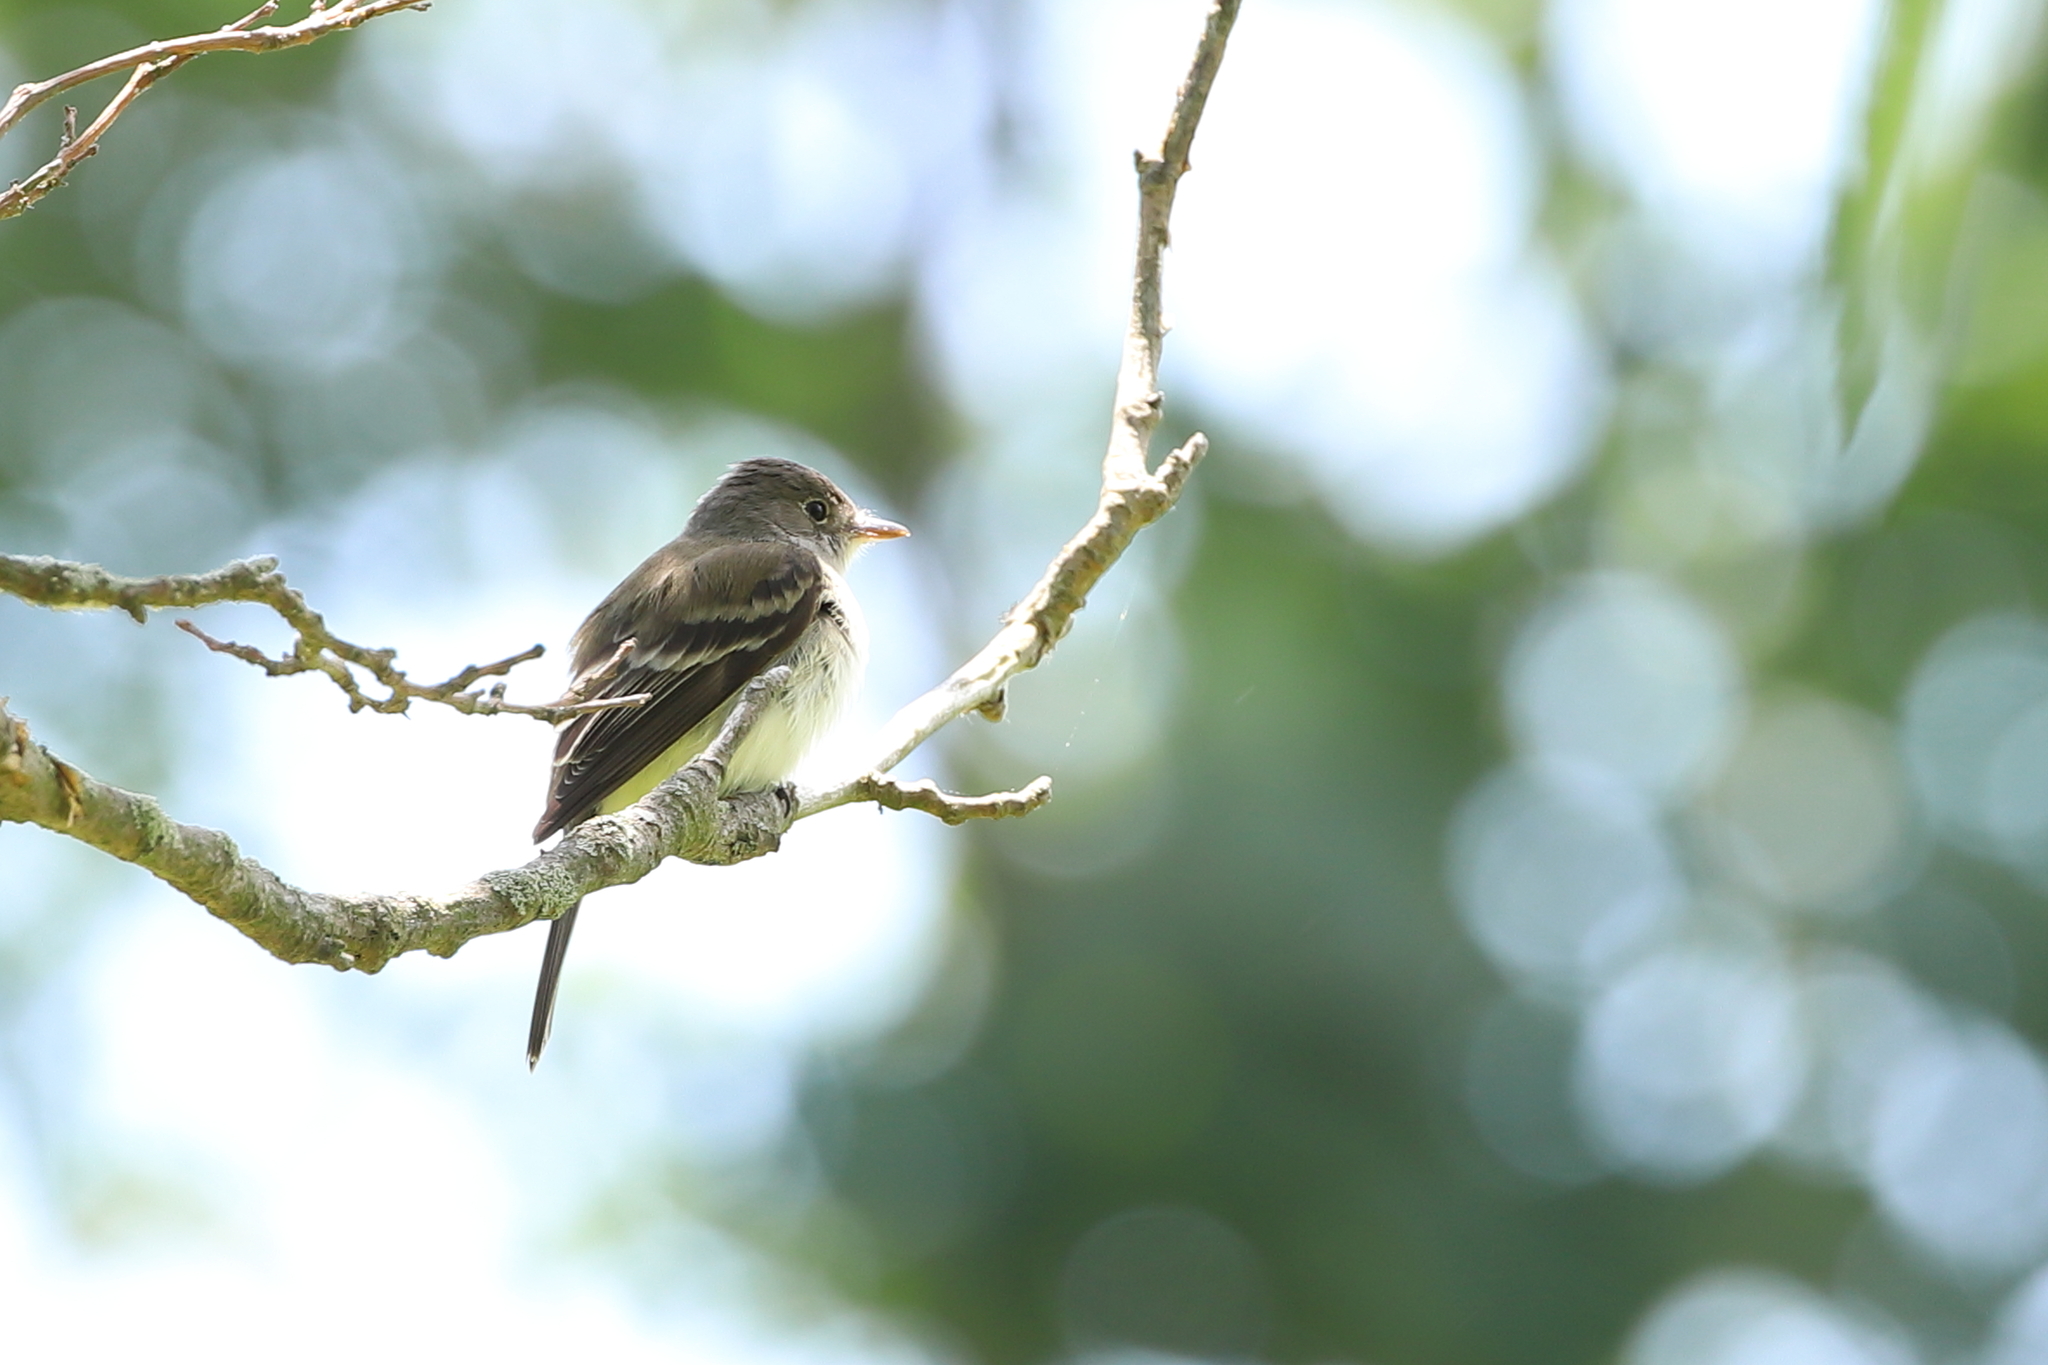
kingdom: Animalia
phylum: Chordata
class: Aves
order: Passeriformes
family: Tyrannidae
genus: Empidonax
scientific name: Empidonax traillii
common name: Willow flycatcher
